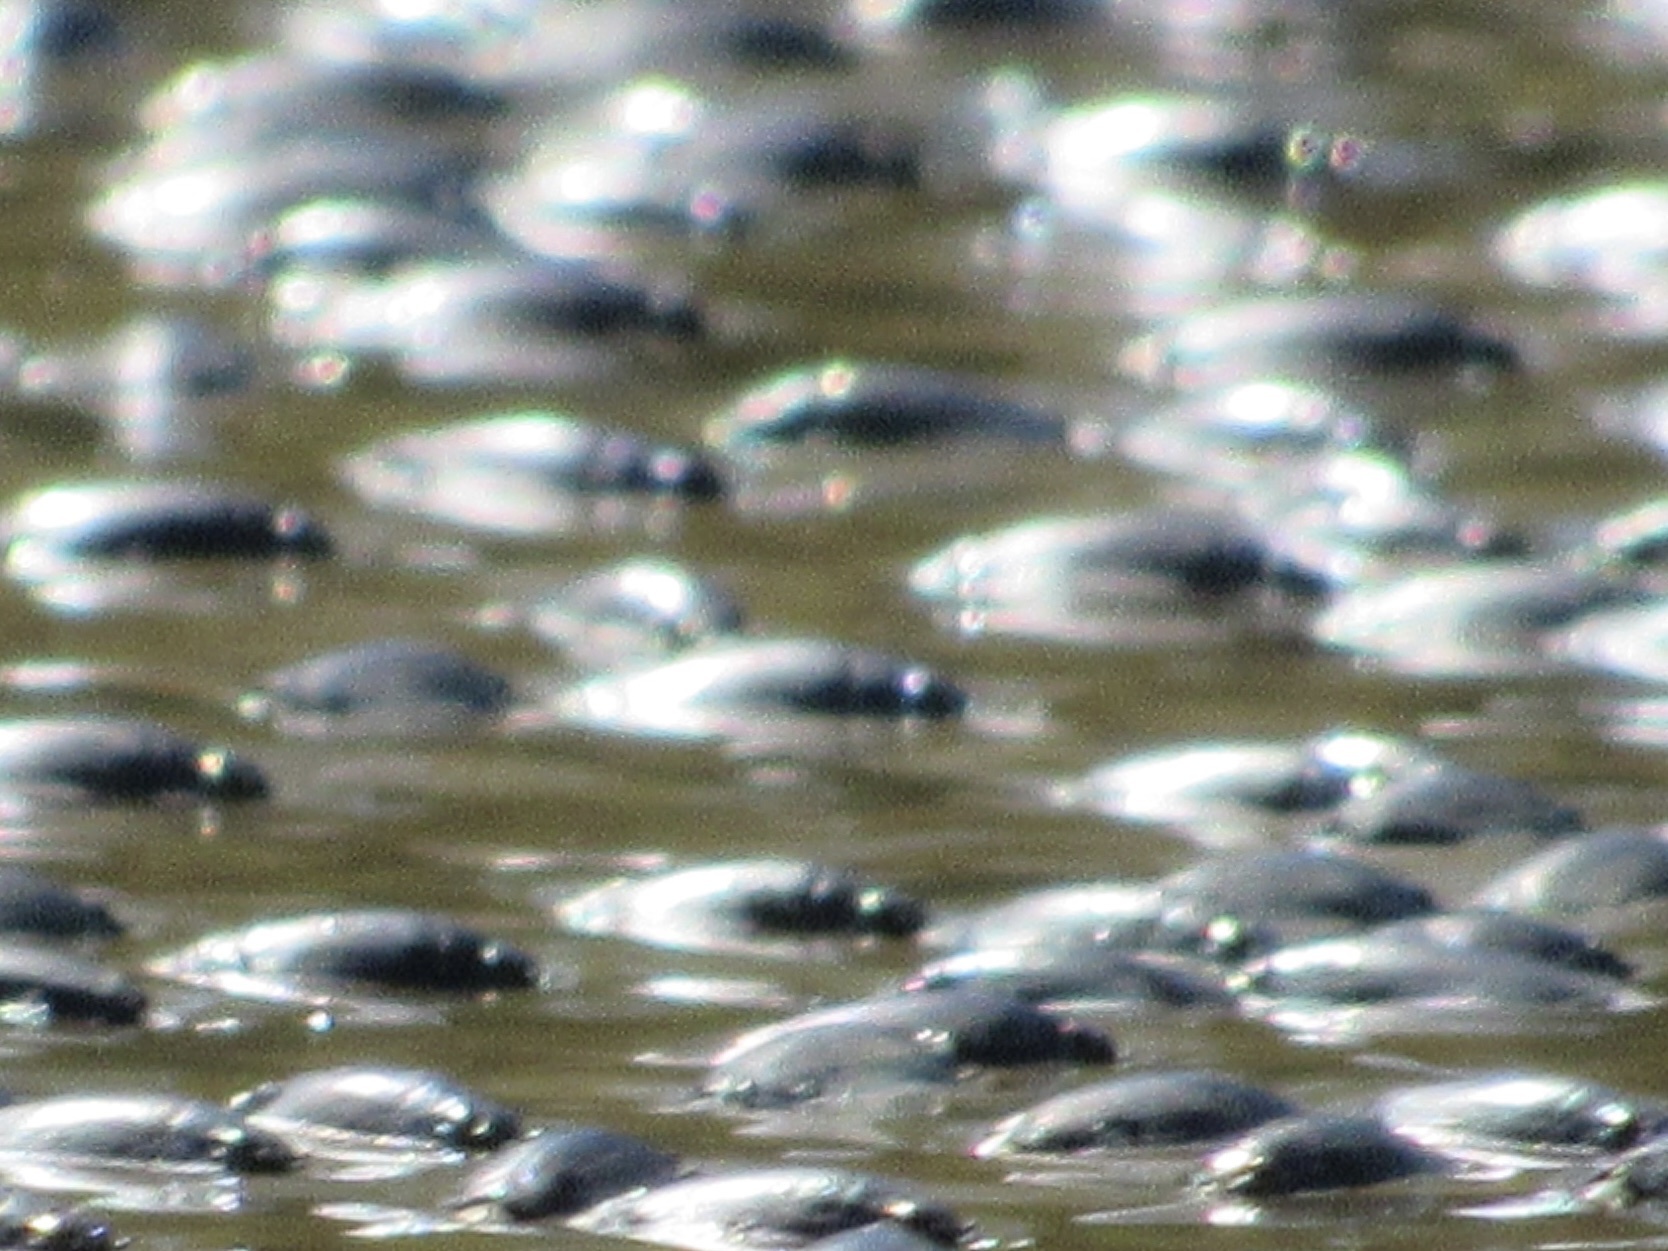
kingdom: Animalia
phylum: Arthropoda
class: Insecta
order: Coleoptera
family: Gyrinidae
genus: Dineutus
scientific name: Dineutus
